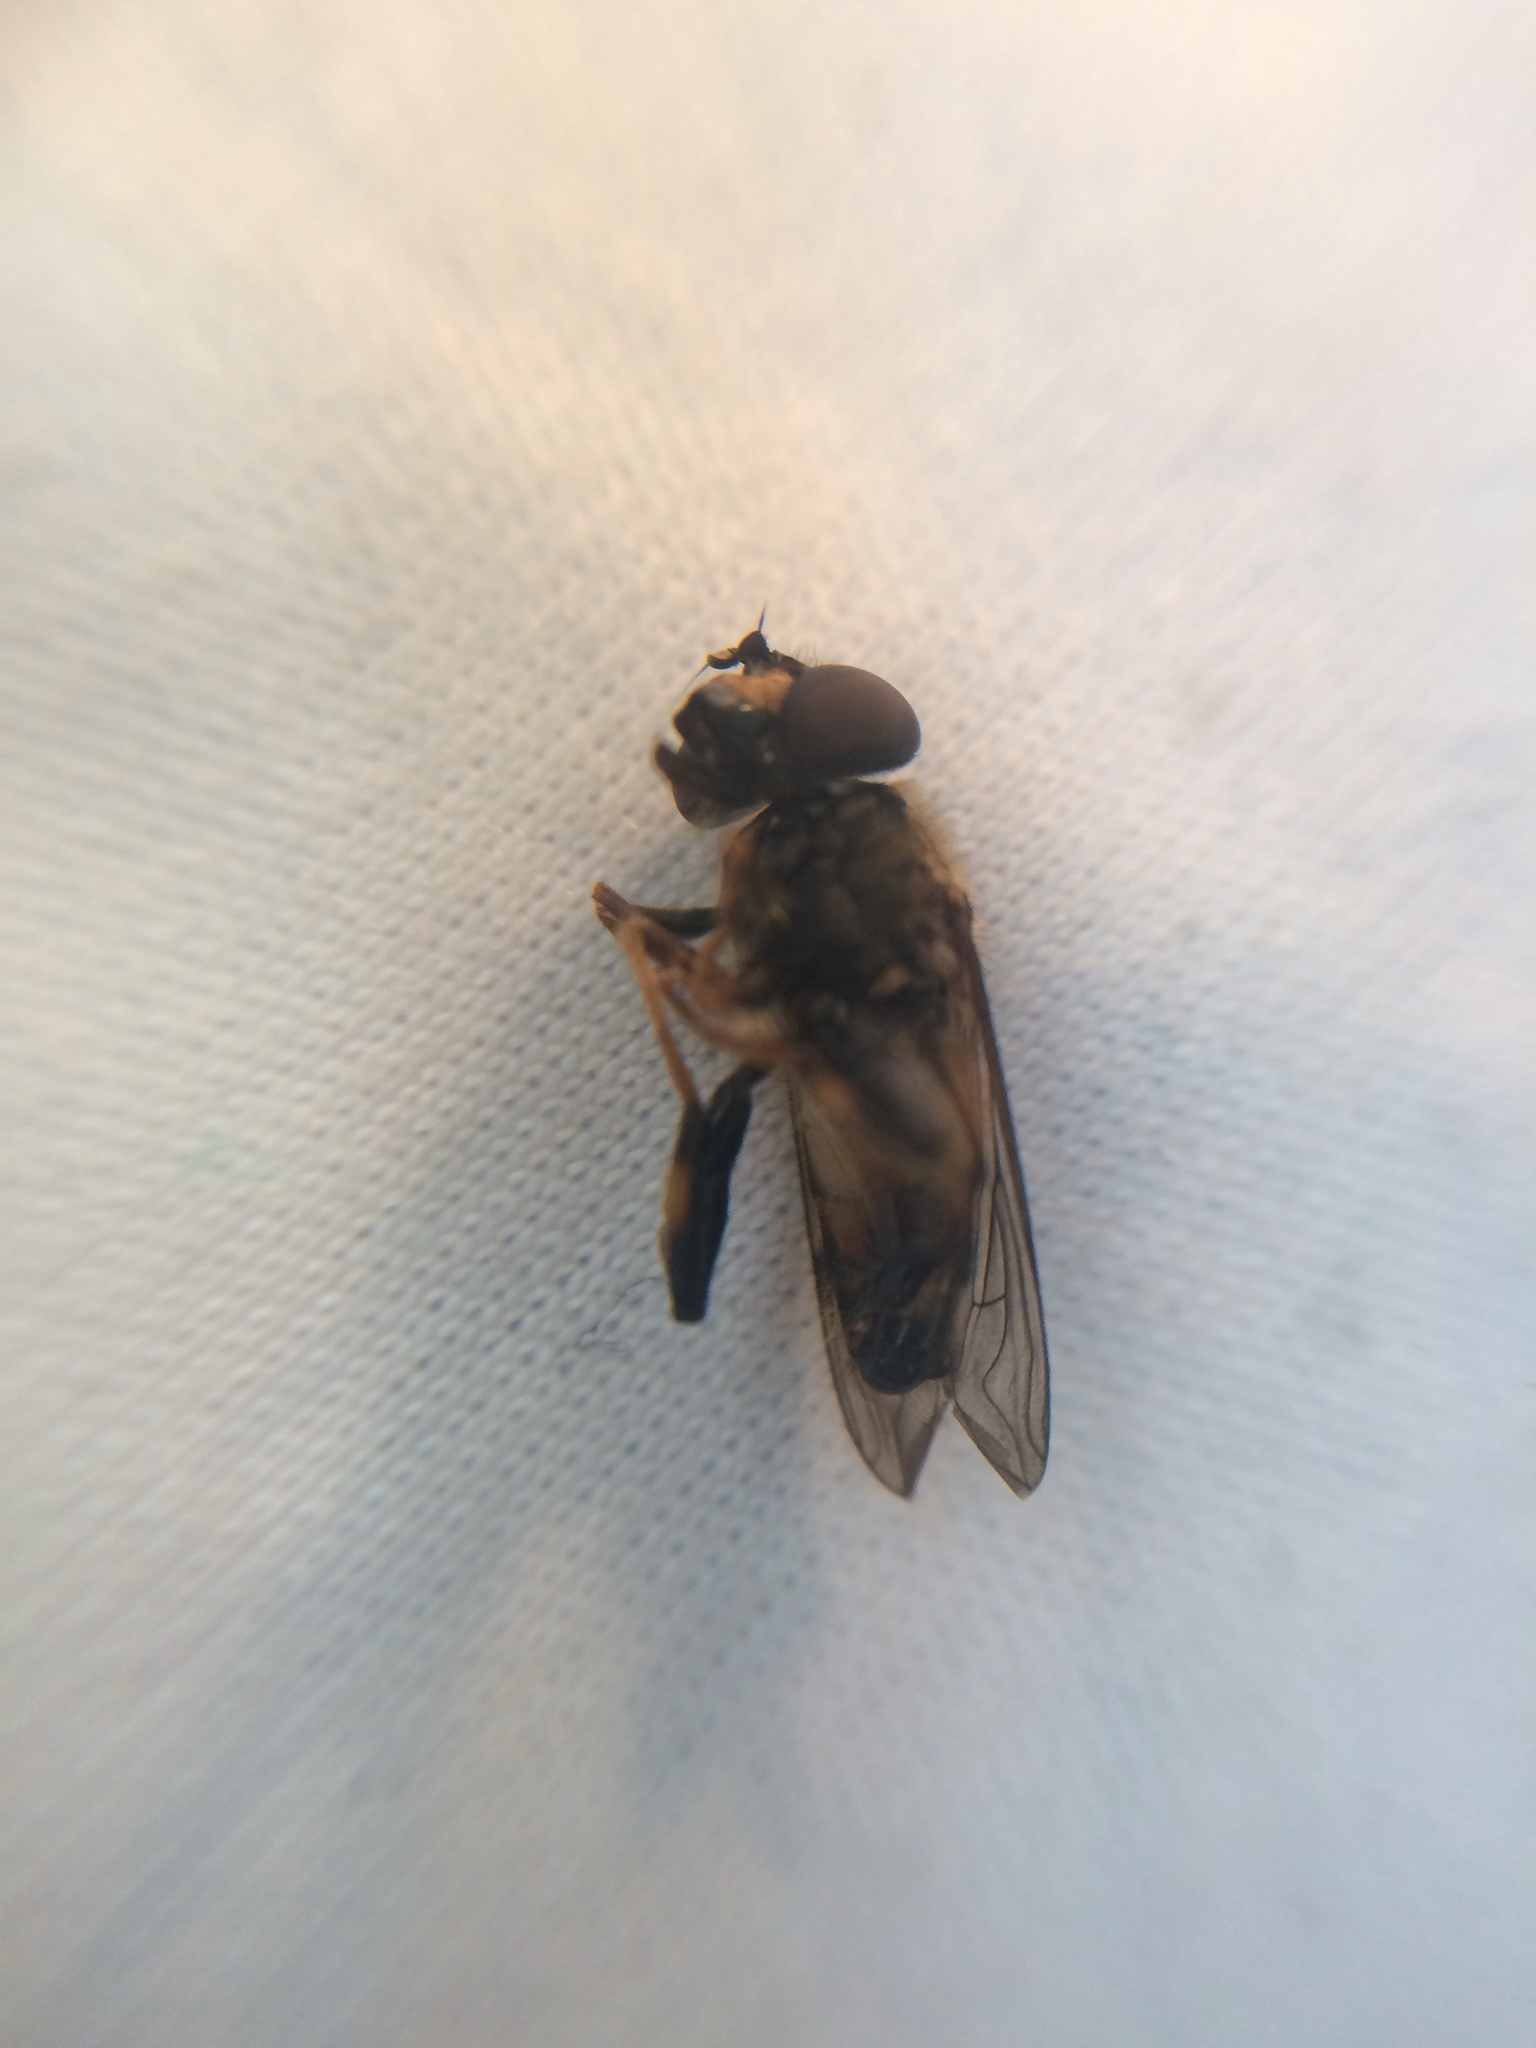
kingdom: Animalia
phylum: Arthropoda
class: Insecta
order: Diptera
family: Syrphidae
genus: Helophilus
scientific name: Helophilus antipodus
